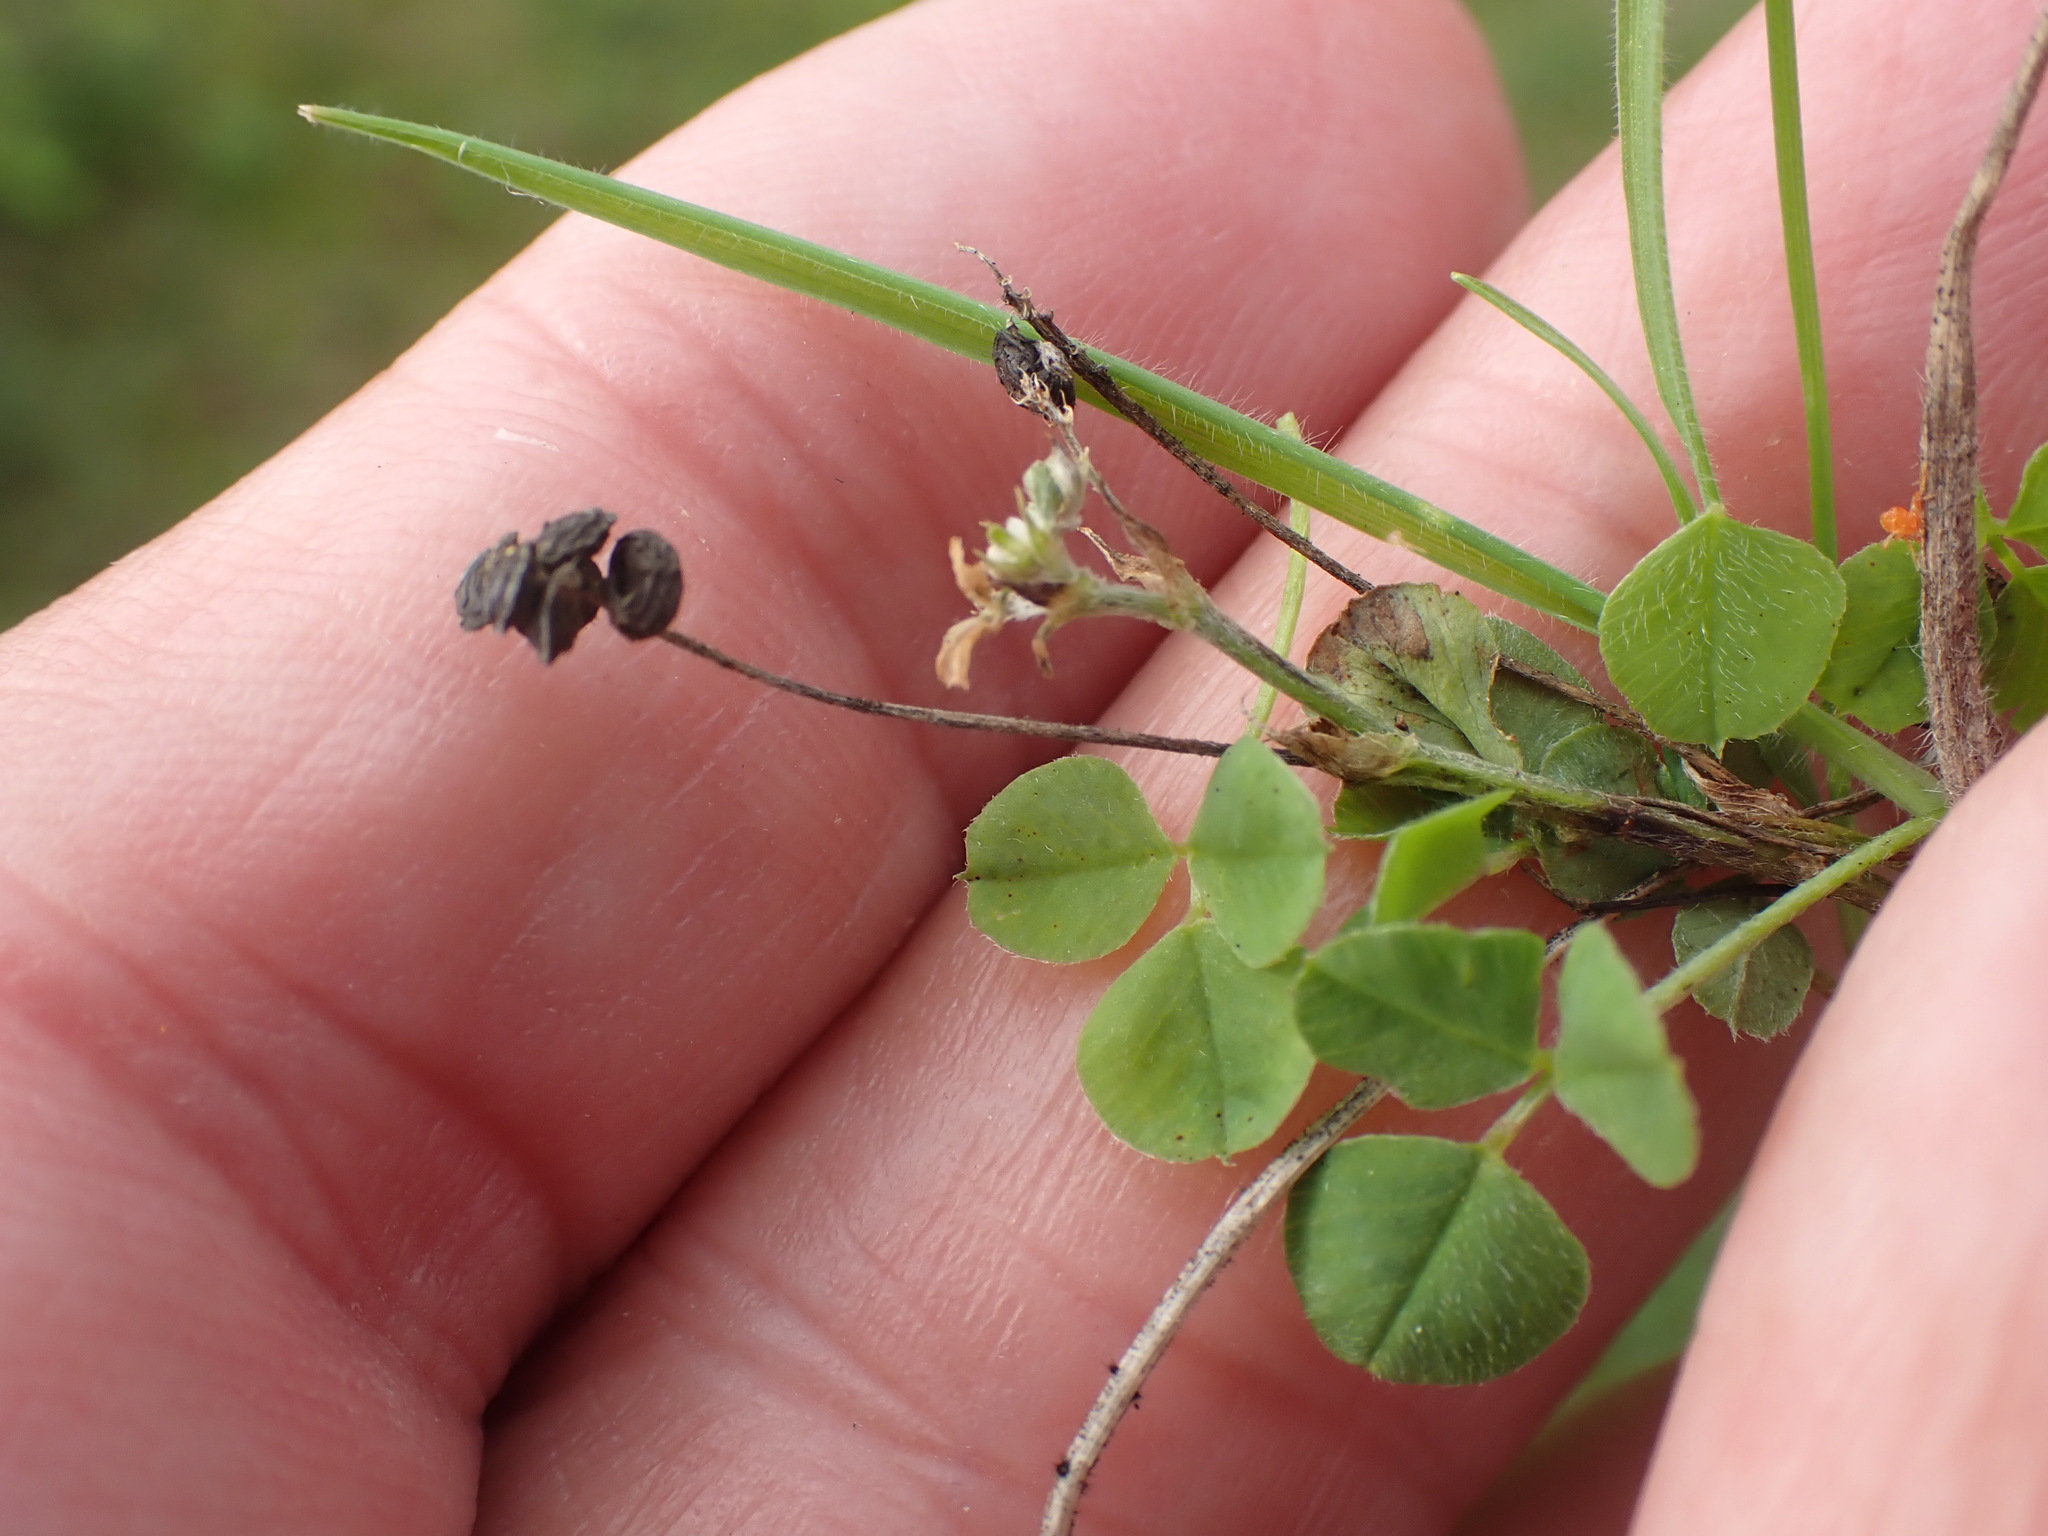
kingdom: Plantae
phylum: Tracheophyta
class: Magnoliopsida
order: Fabales
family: Fabaceae
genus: Medicago
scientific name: Medicago lupulina
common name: Black medick
